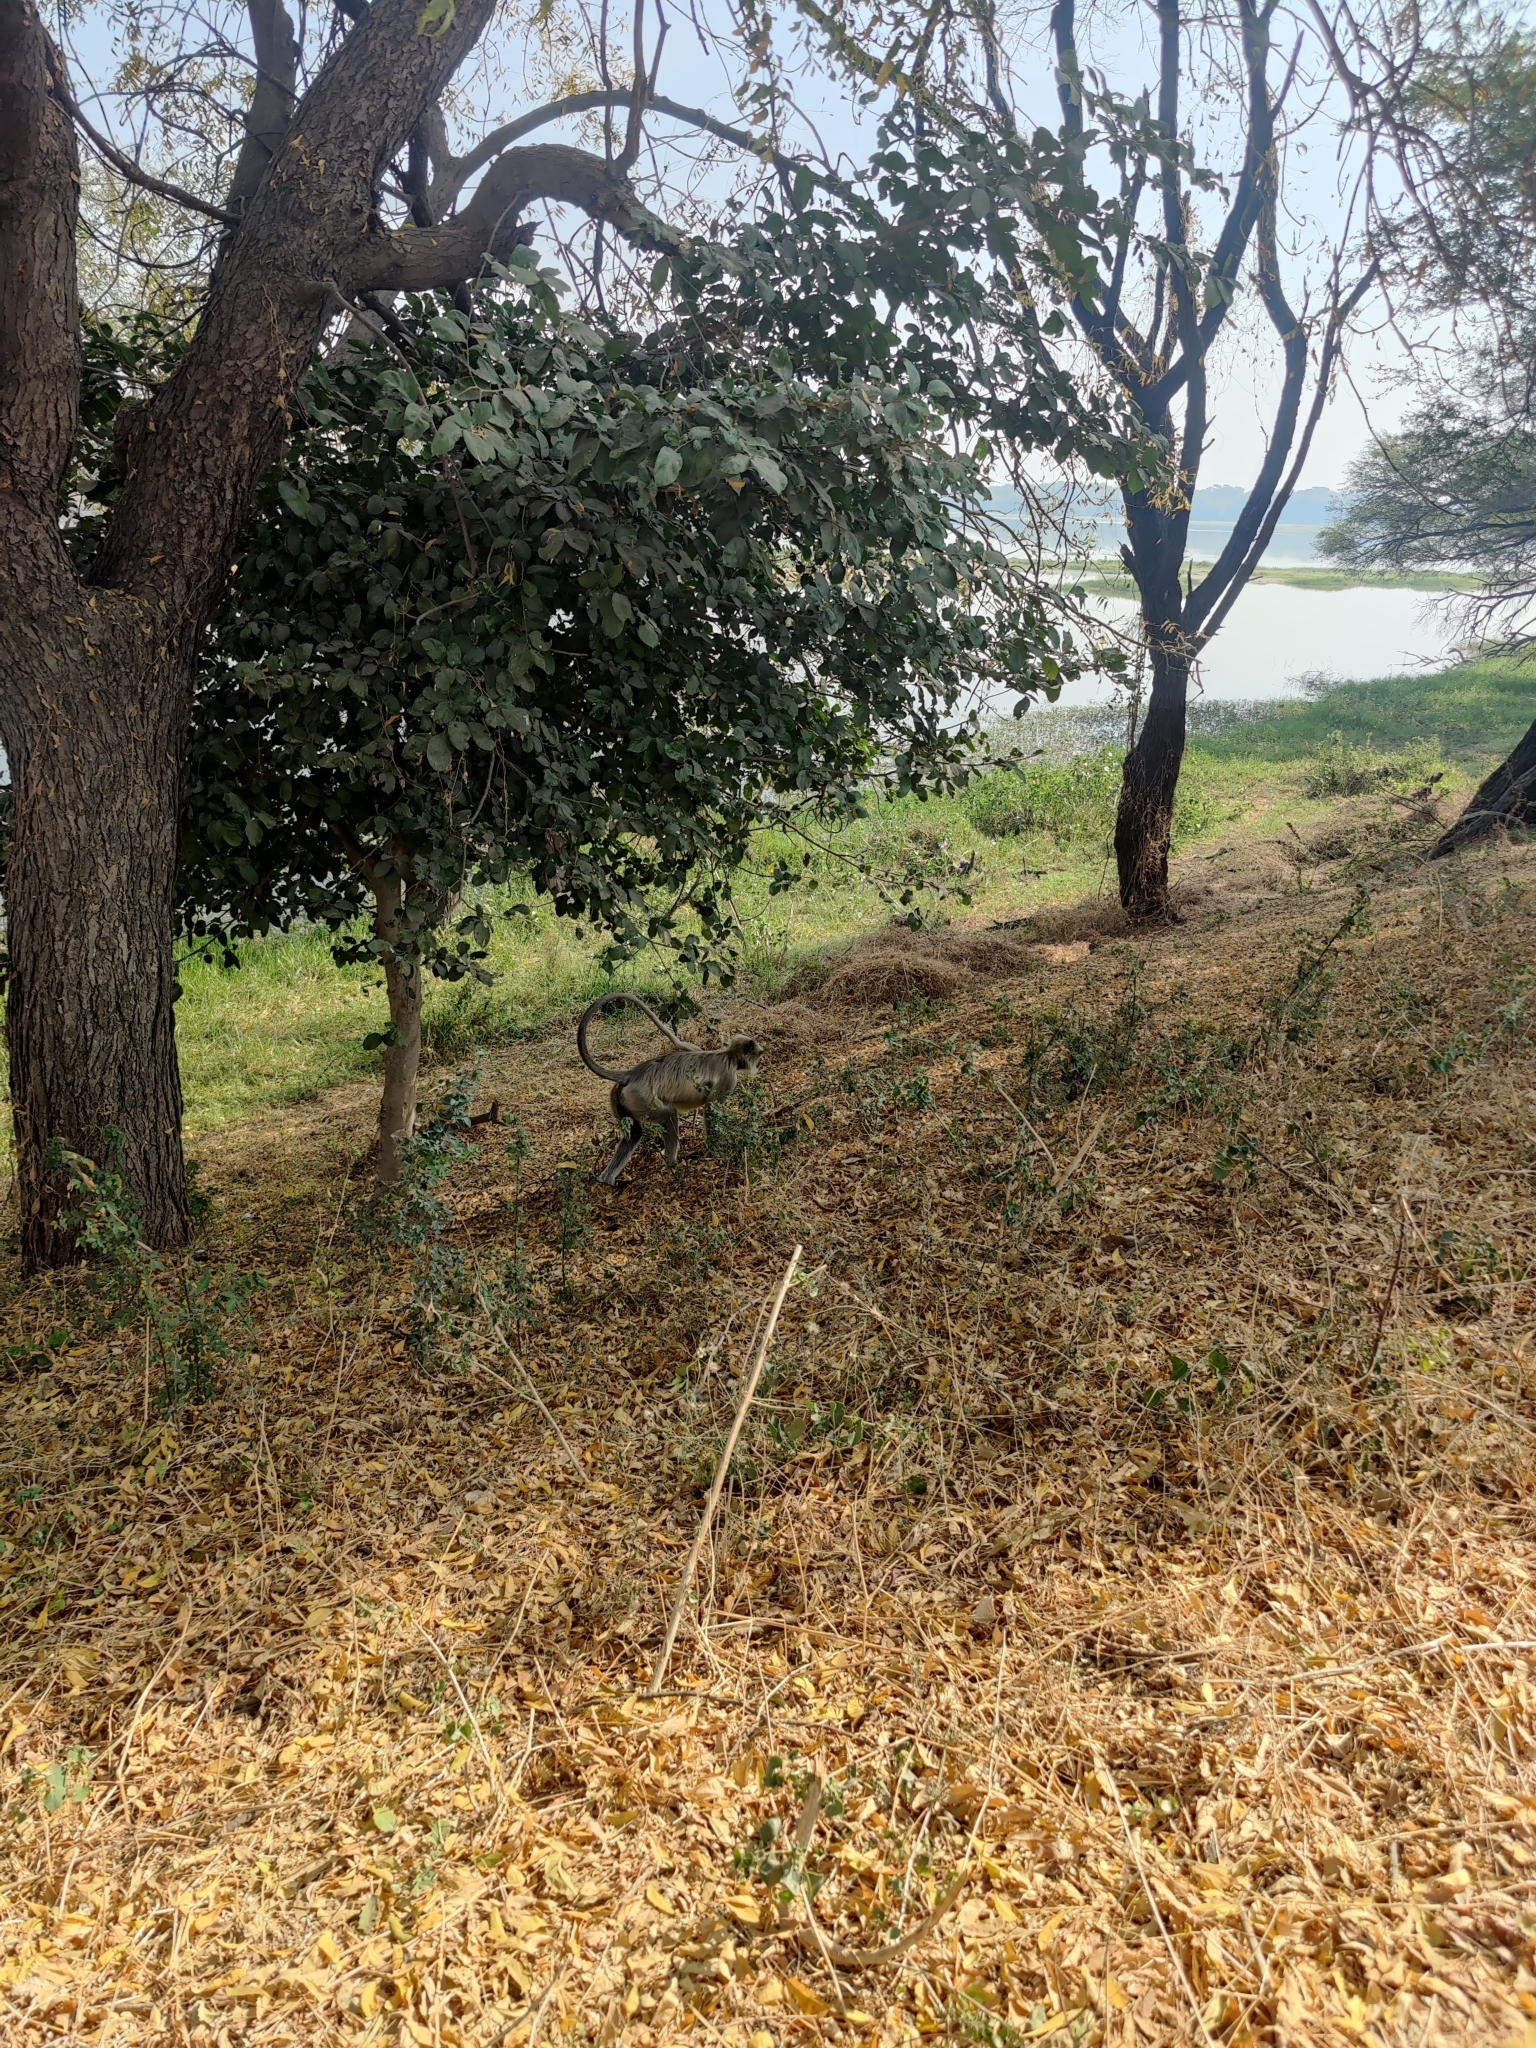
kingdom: Animalia
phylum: Chordata
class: Mammalia
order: Primates
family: Cercopithecidae
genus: Semnopithecus
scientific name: Semnopithecus entellus
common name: Northern plains gray langur
